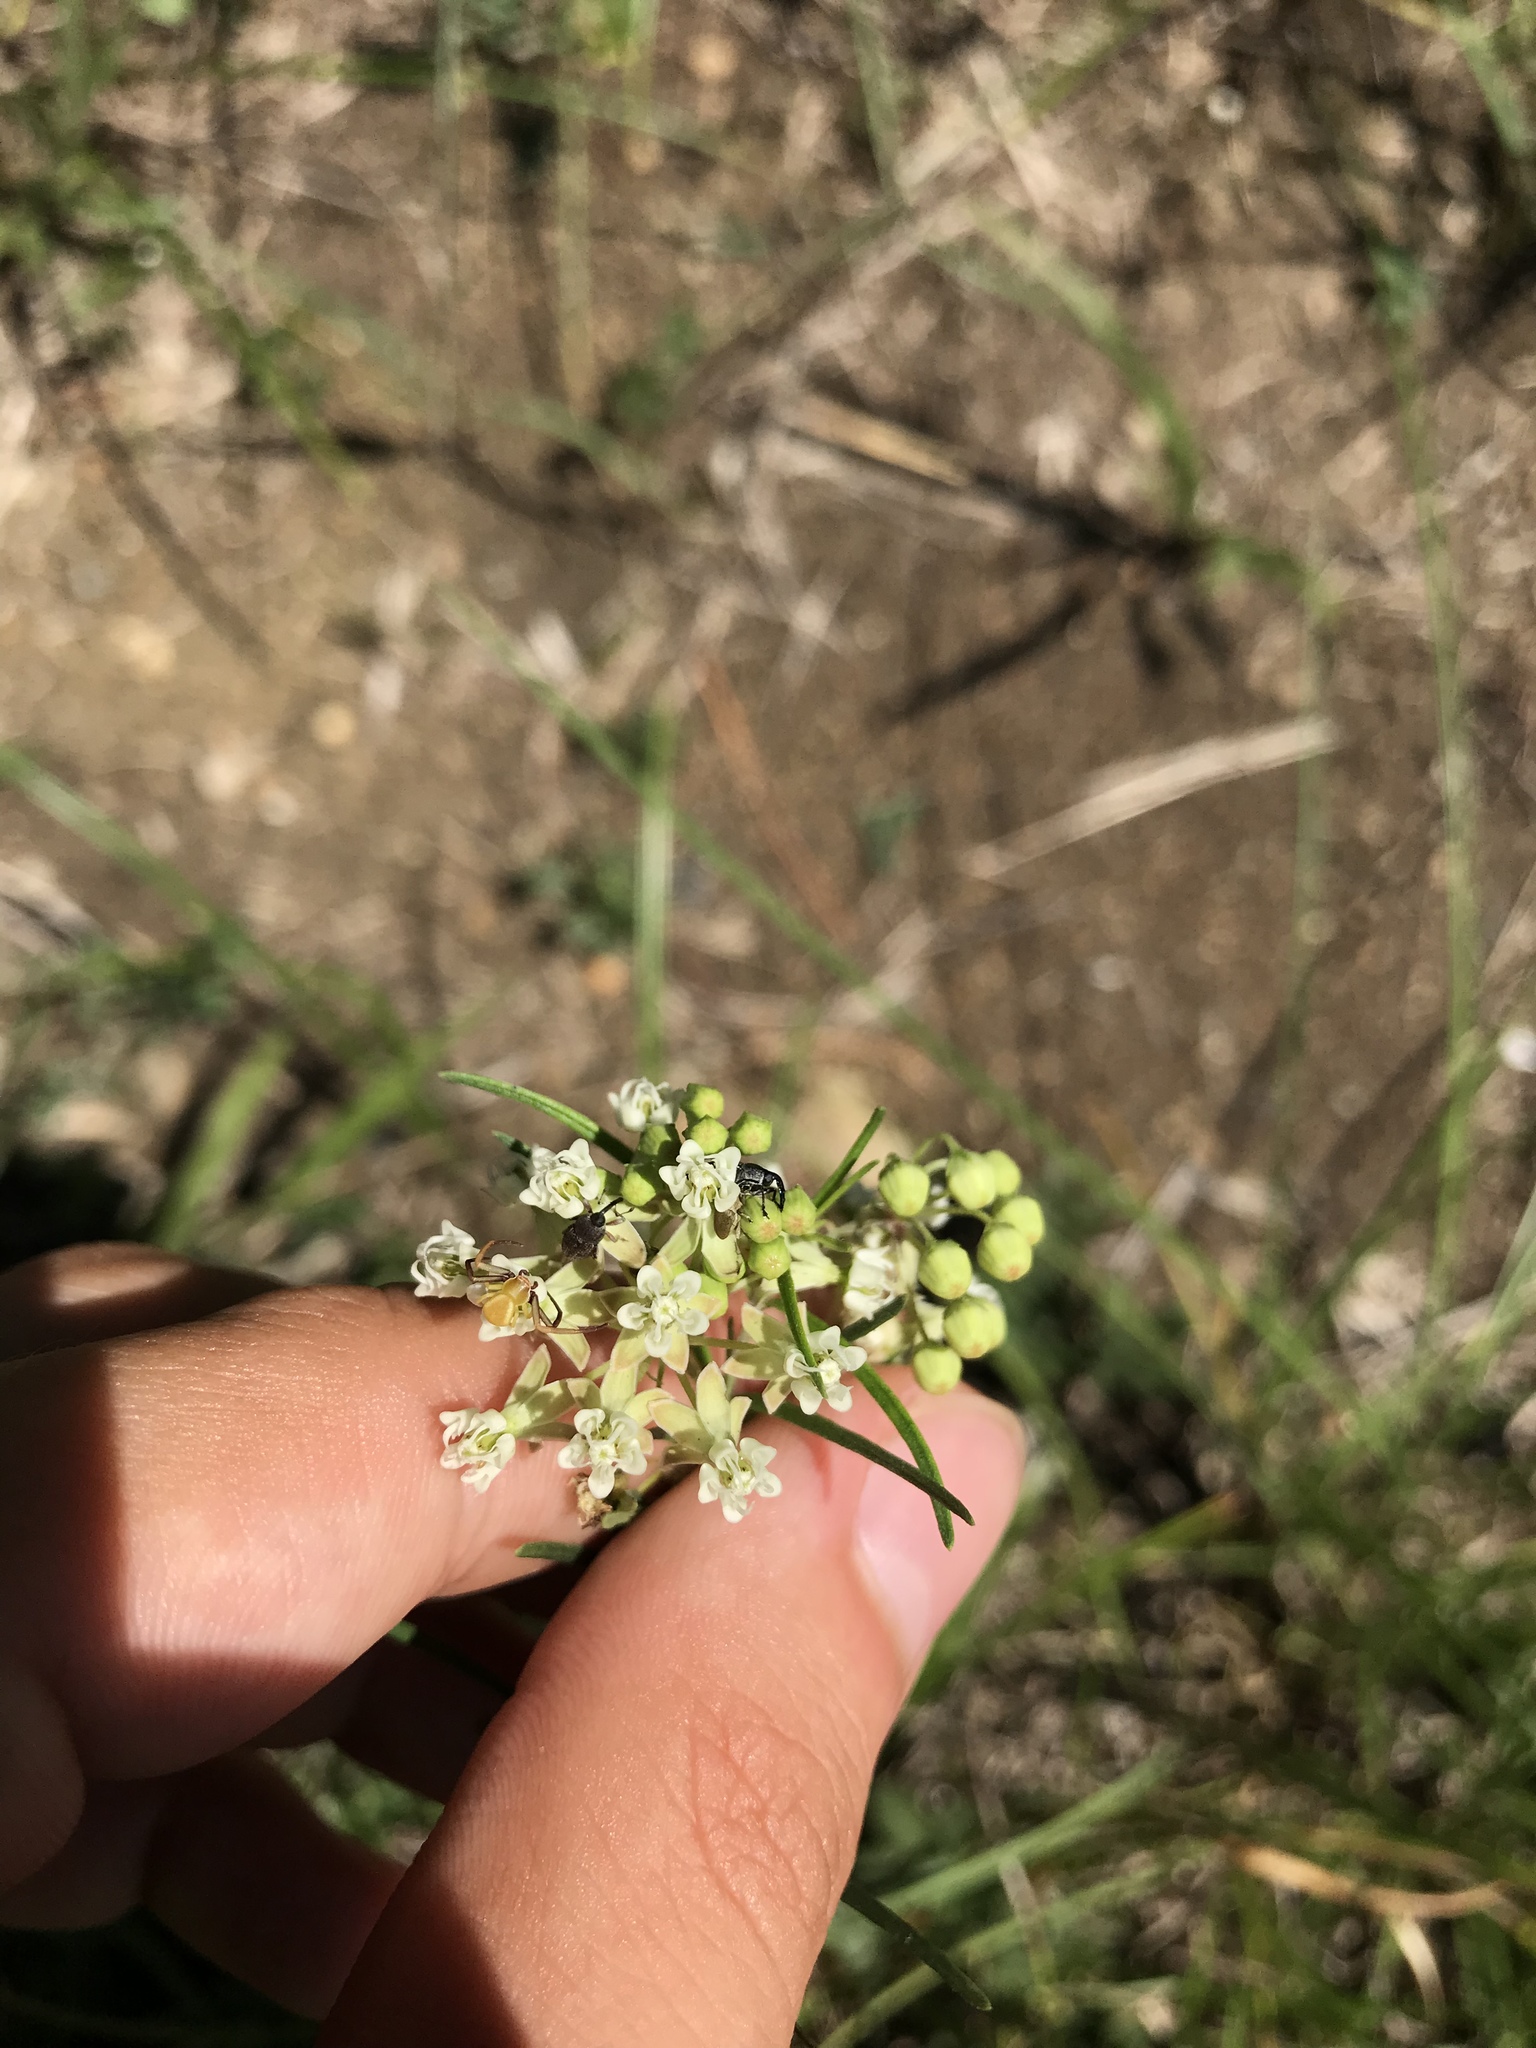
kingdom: Plantae
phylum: Tracheophyta
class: Magnoliopsida
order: Gentianales
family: Apocynaceae
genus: Asclepias
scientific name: Asclepias verticillata
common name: Eastern whorled milkweed
